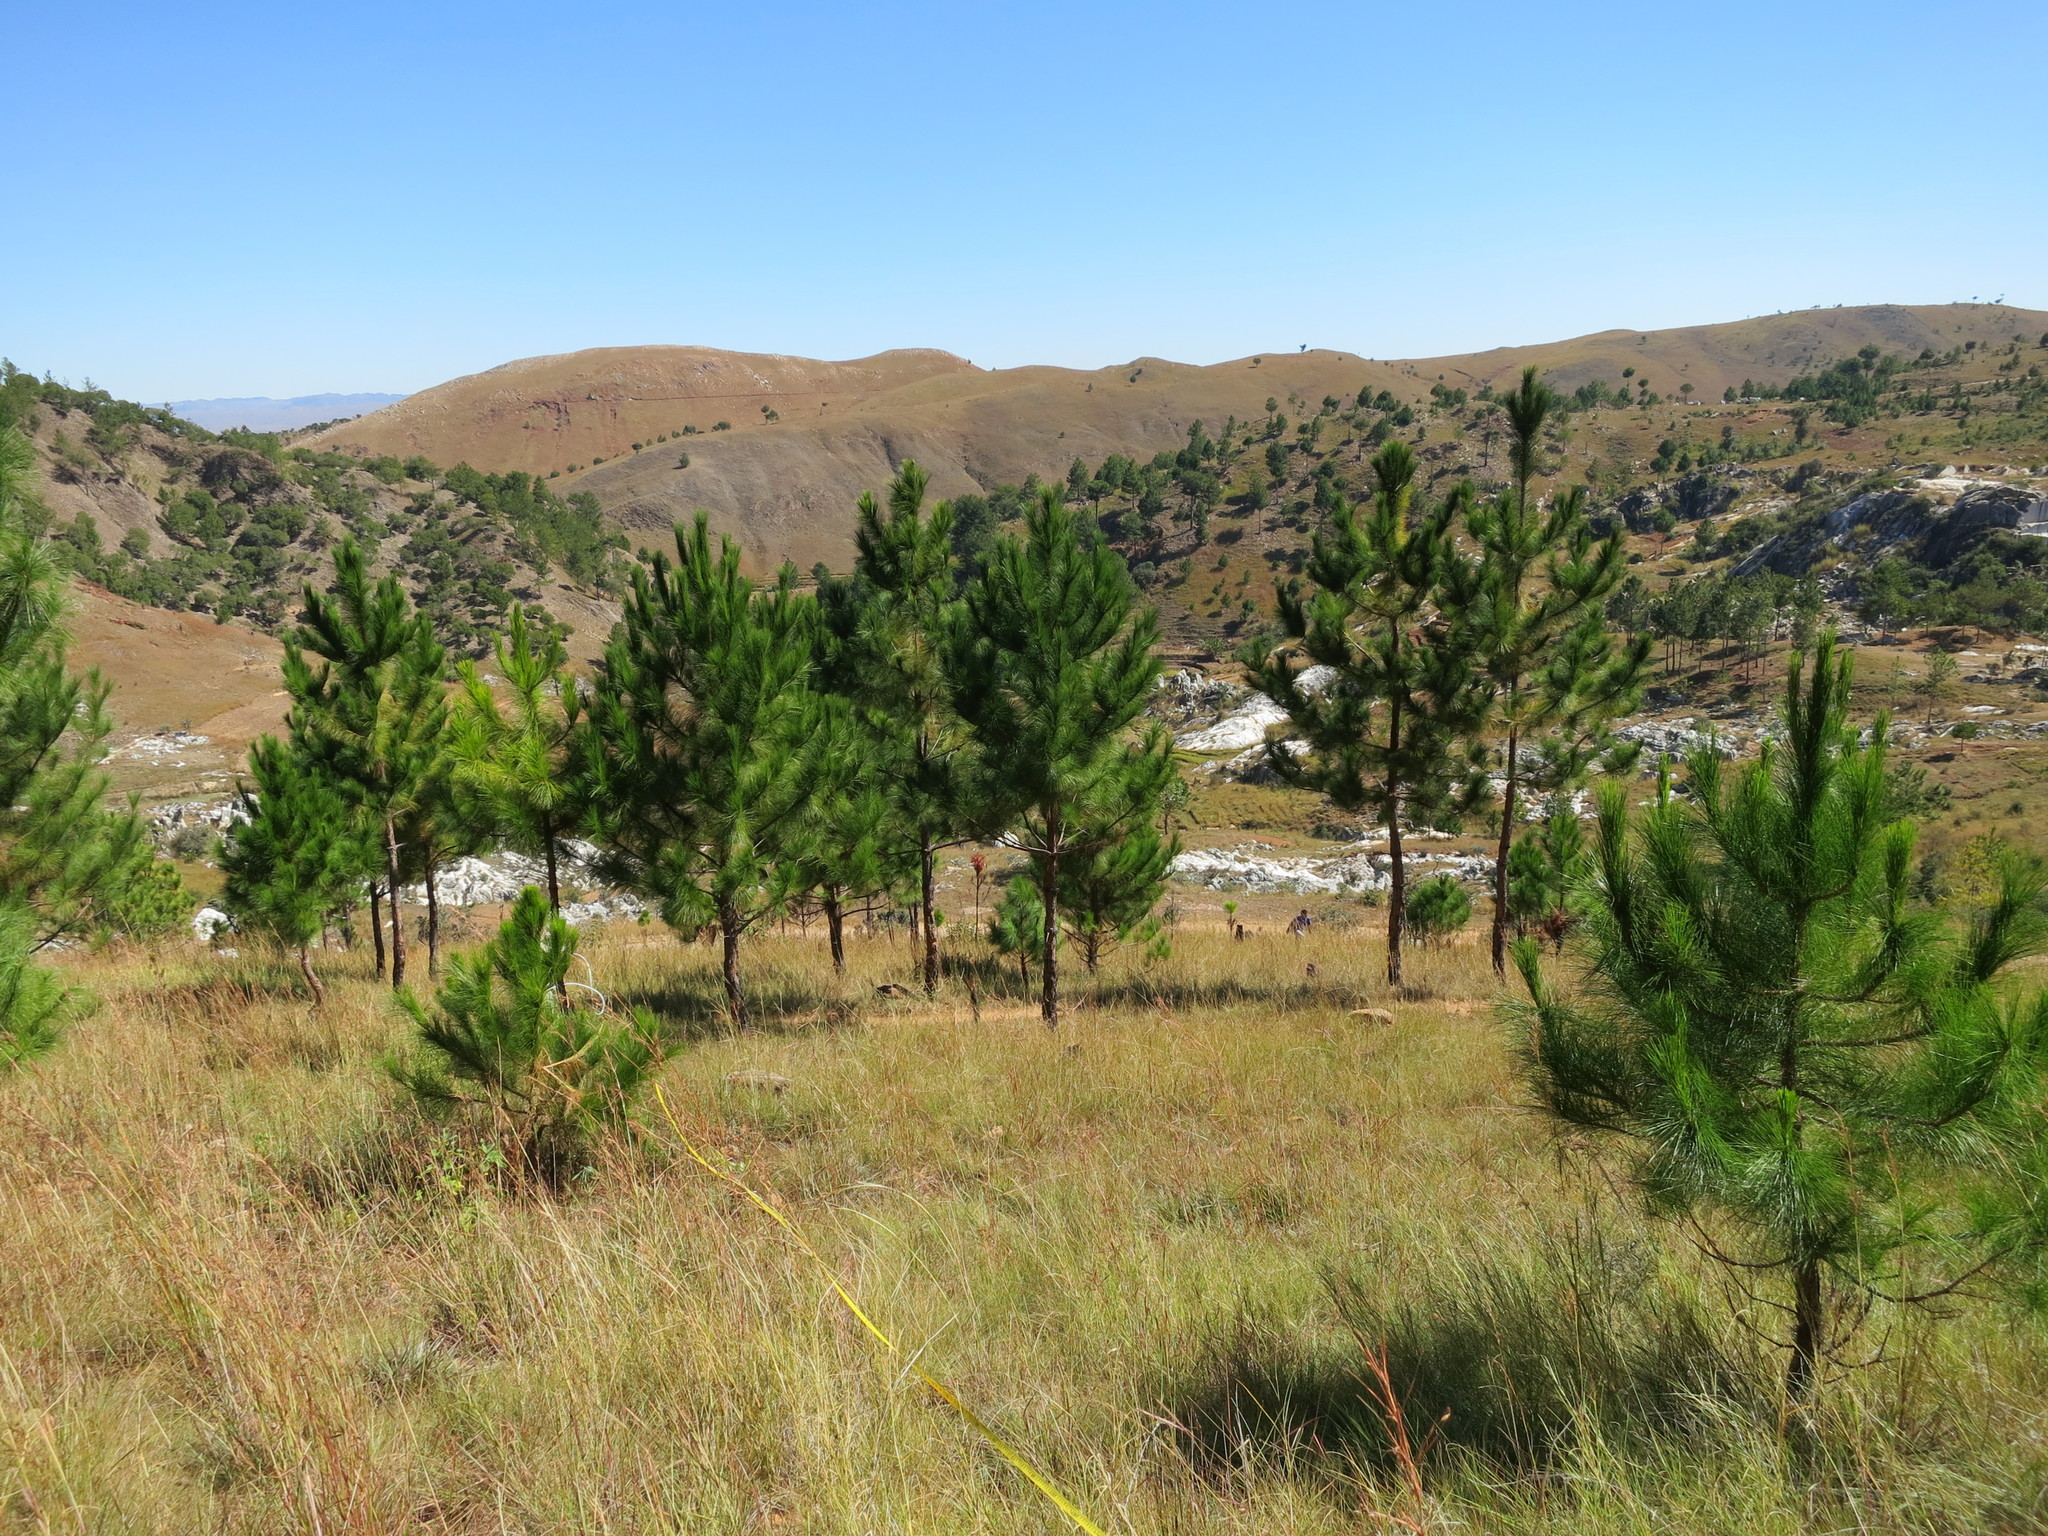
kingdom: Plantae
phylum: Tracheophyta
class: Pinopsida
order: Pinales
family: Pinaceae
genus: Pinus
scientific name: Pinus kesiya
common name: Benguet pine
